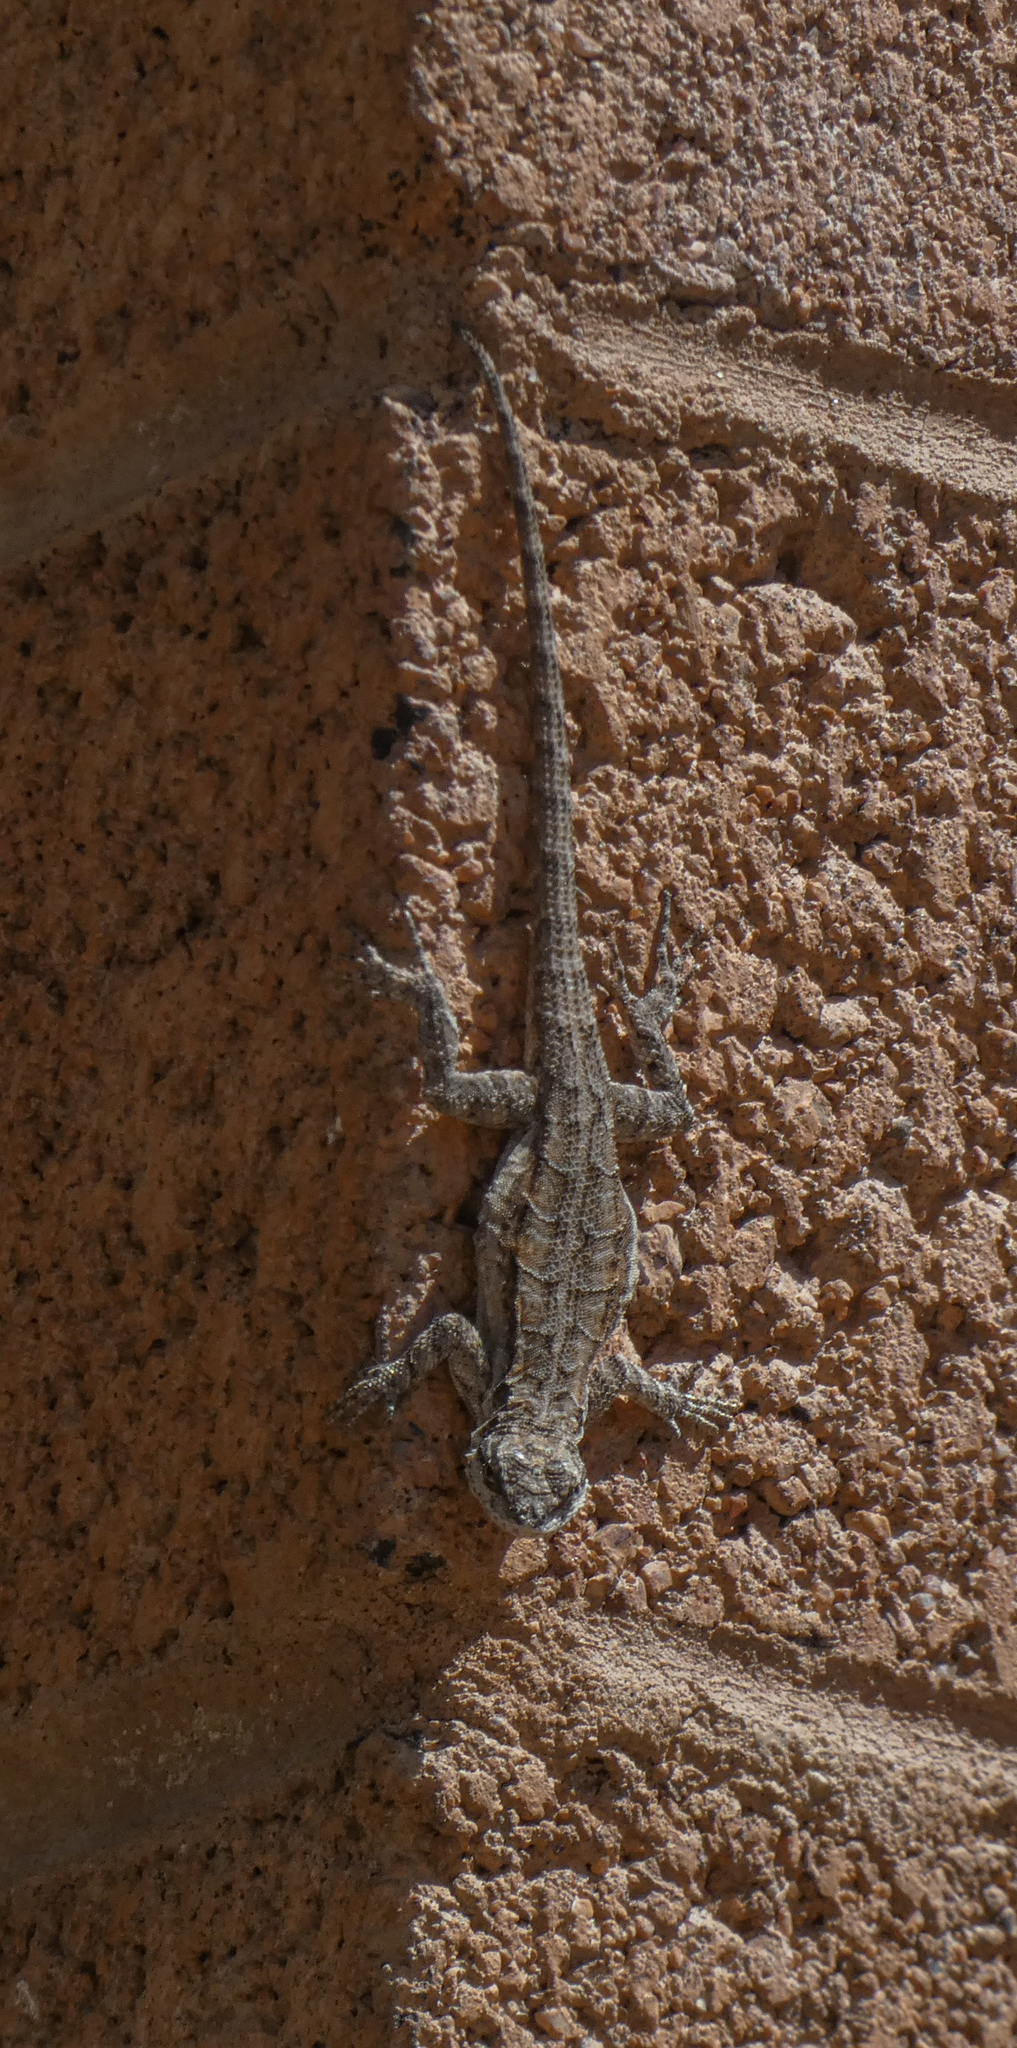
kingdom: Animalia
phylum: Chordata
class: Squamata
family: Phrynosomatidae
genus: Urosaurus
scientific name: Urosaurus ornatus
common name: Ornate tree lizard
